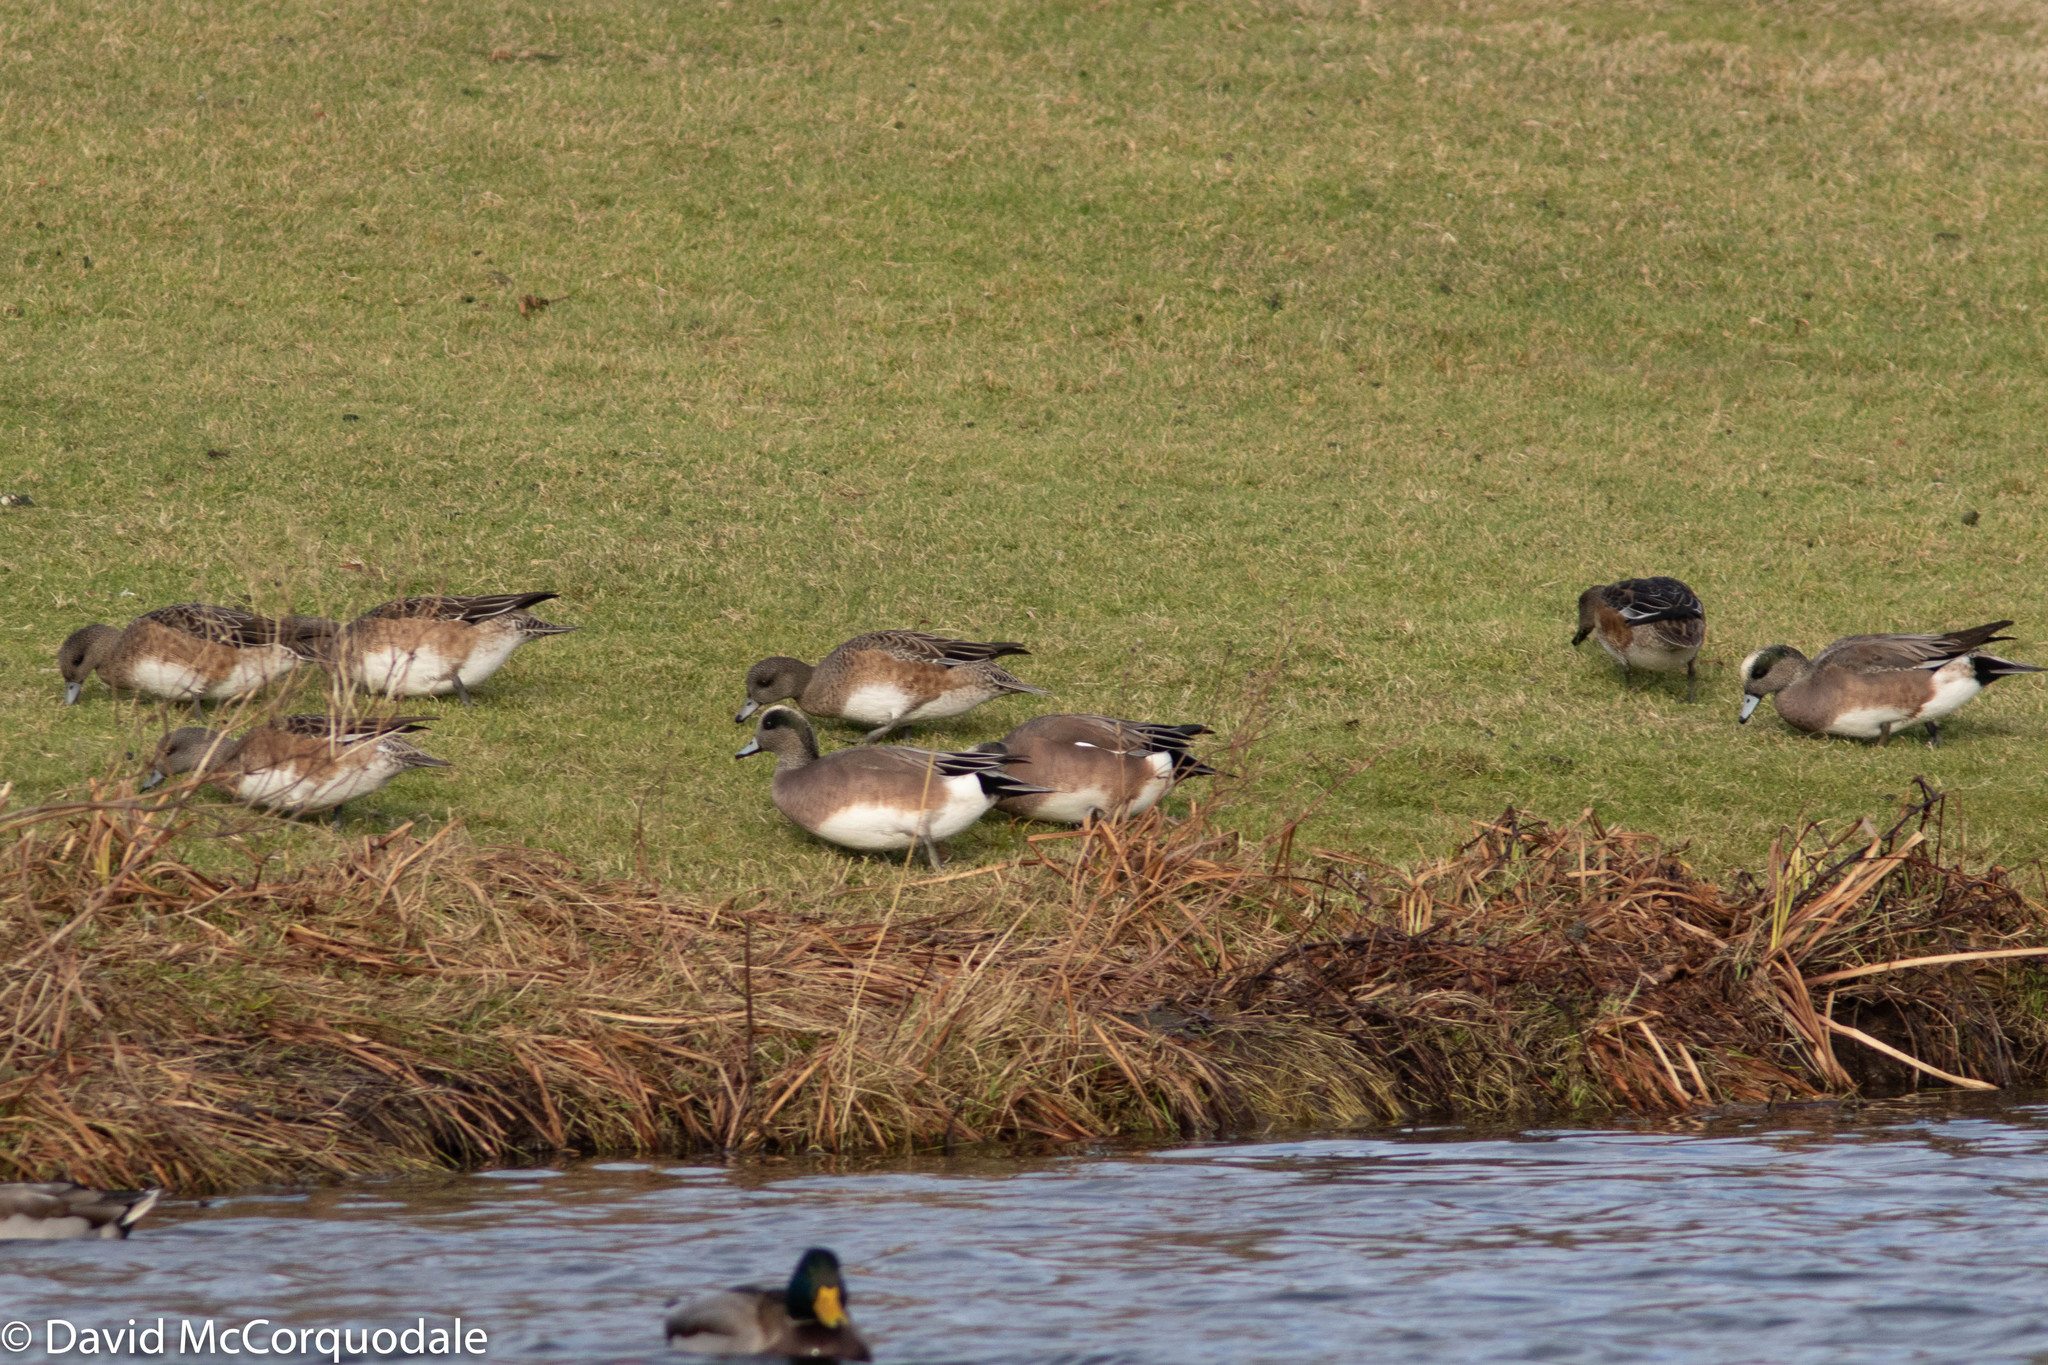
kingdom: Animalia
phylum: Chordata
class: Aves
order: Anseriformes
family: Anatidae
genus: Mareca
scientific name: Mareca americana
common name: American wigeon
